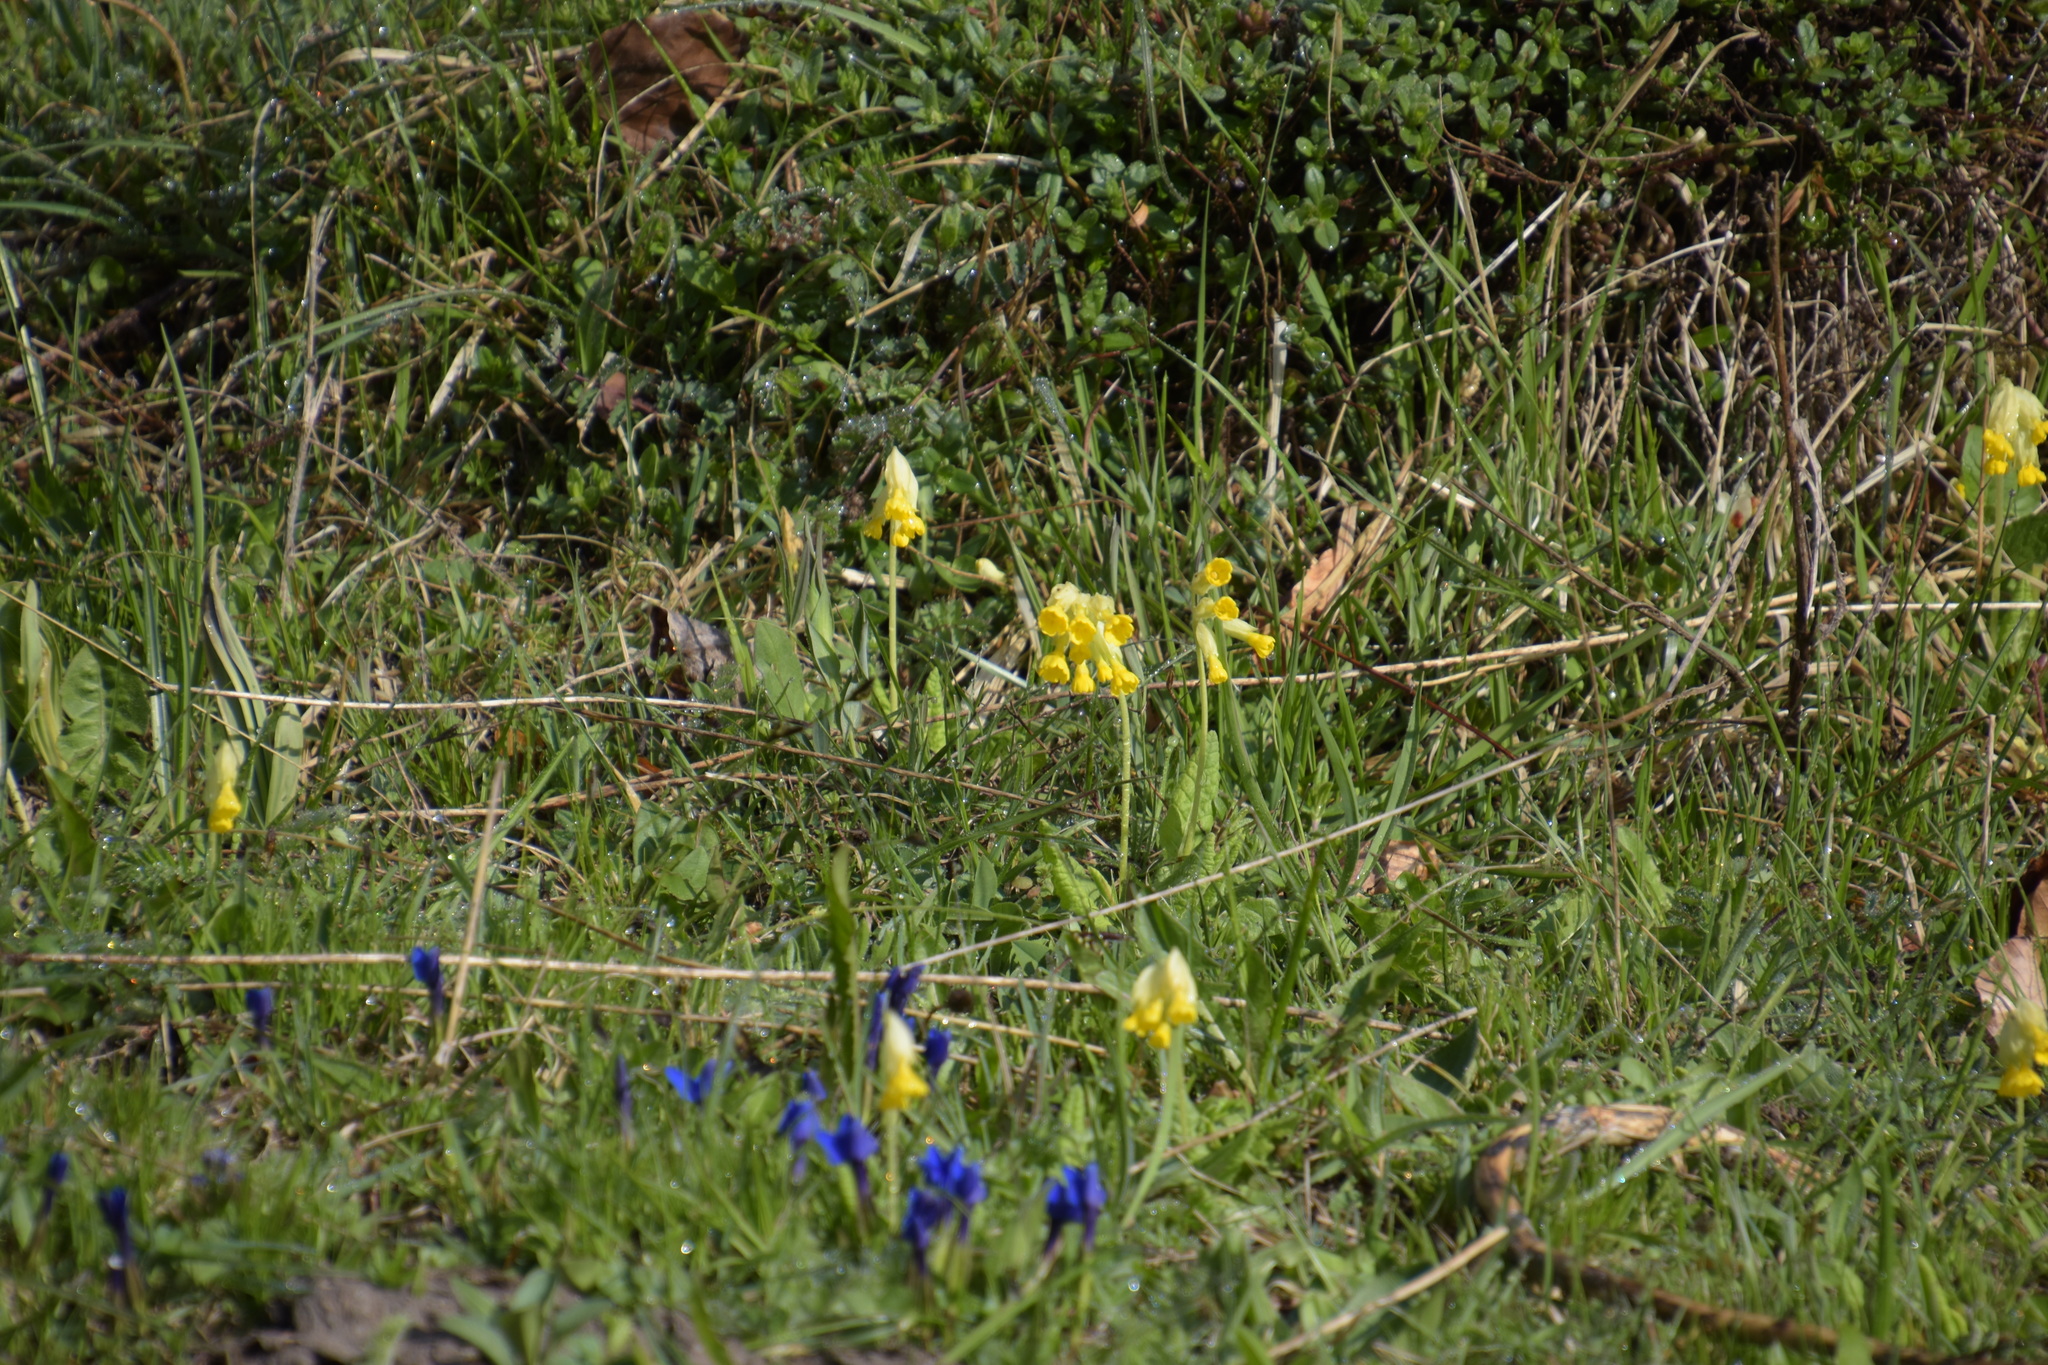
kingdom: Plantae
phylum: Tracheophyta
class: Magnoliopsida
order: Gentianales
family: Gentianaceae
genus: Gentiana
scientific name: Gentiana verna
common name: Spring gentian
